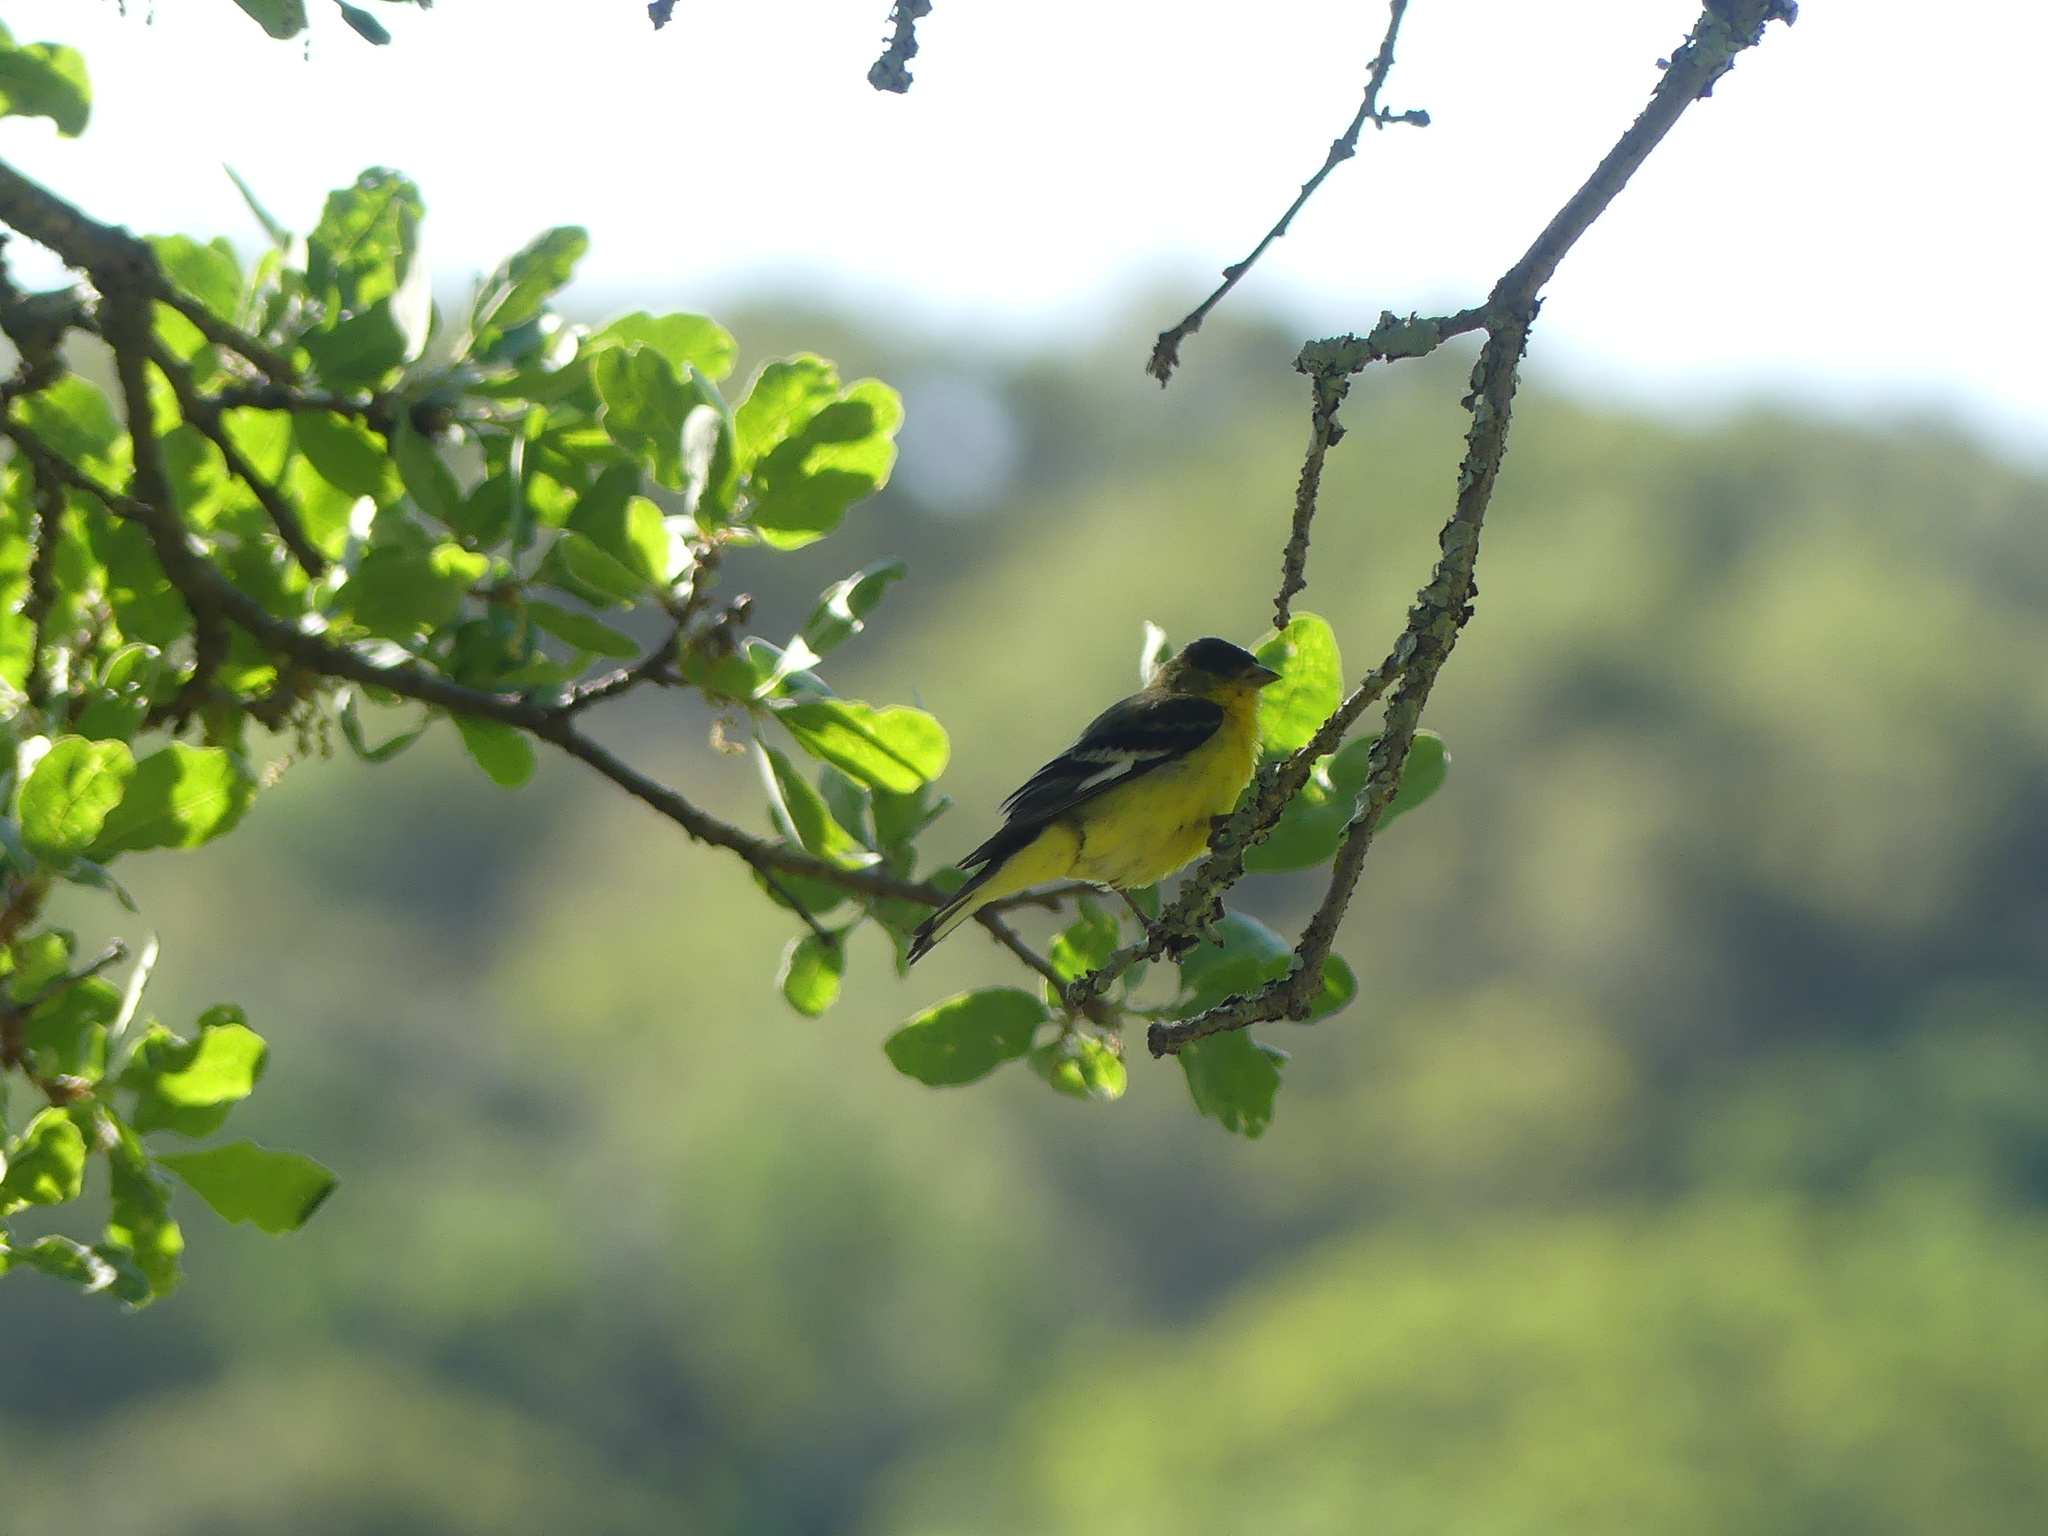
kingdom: Animalia
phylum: Chordata
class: Aves
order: Passeriformes
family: Fringillidae
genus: Spinus
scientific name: Spinus psaltria
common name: Lesser goldfinch
